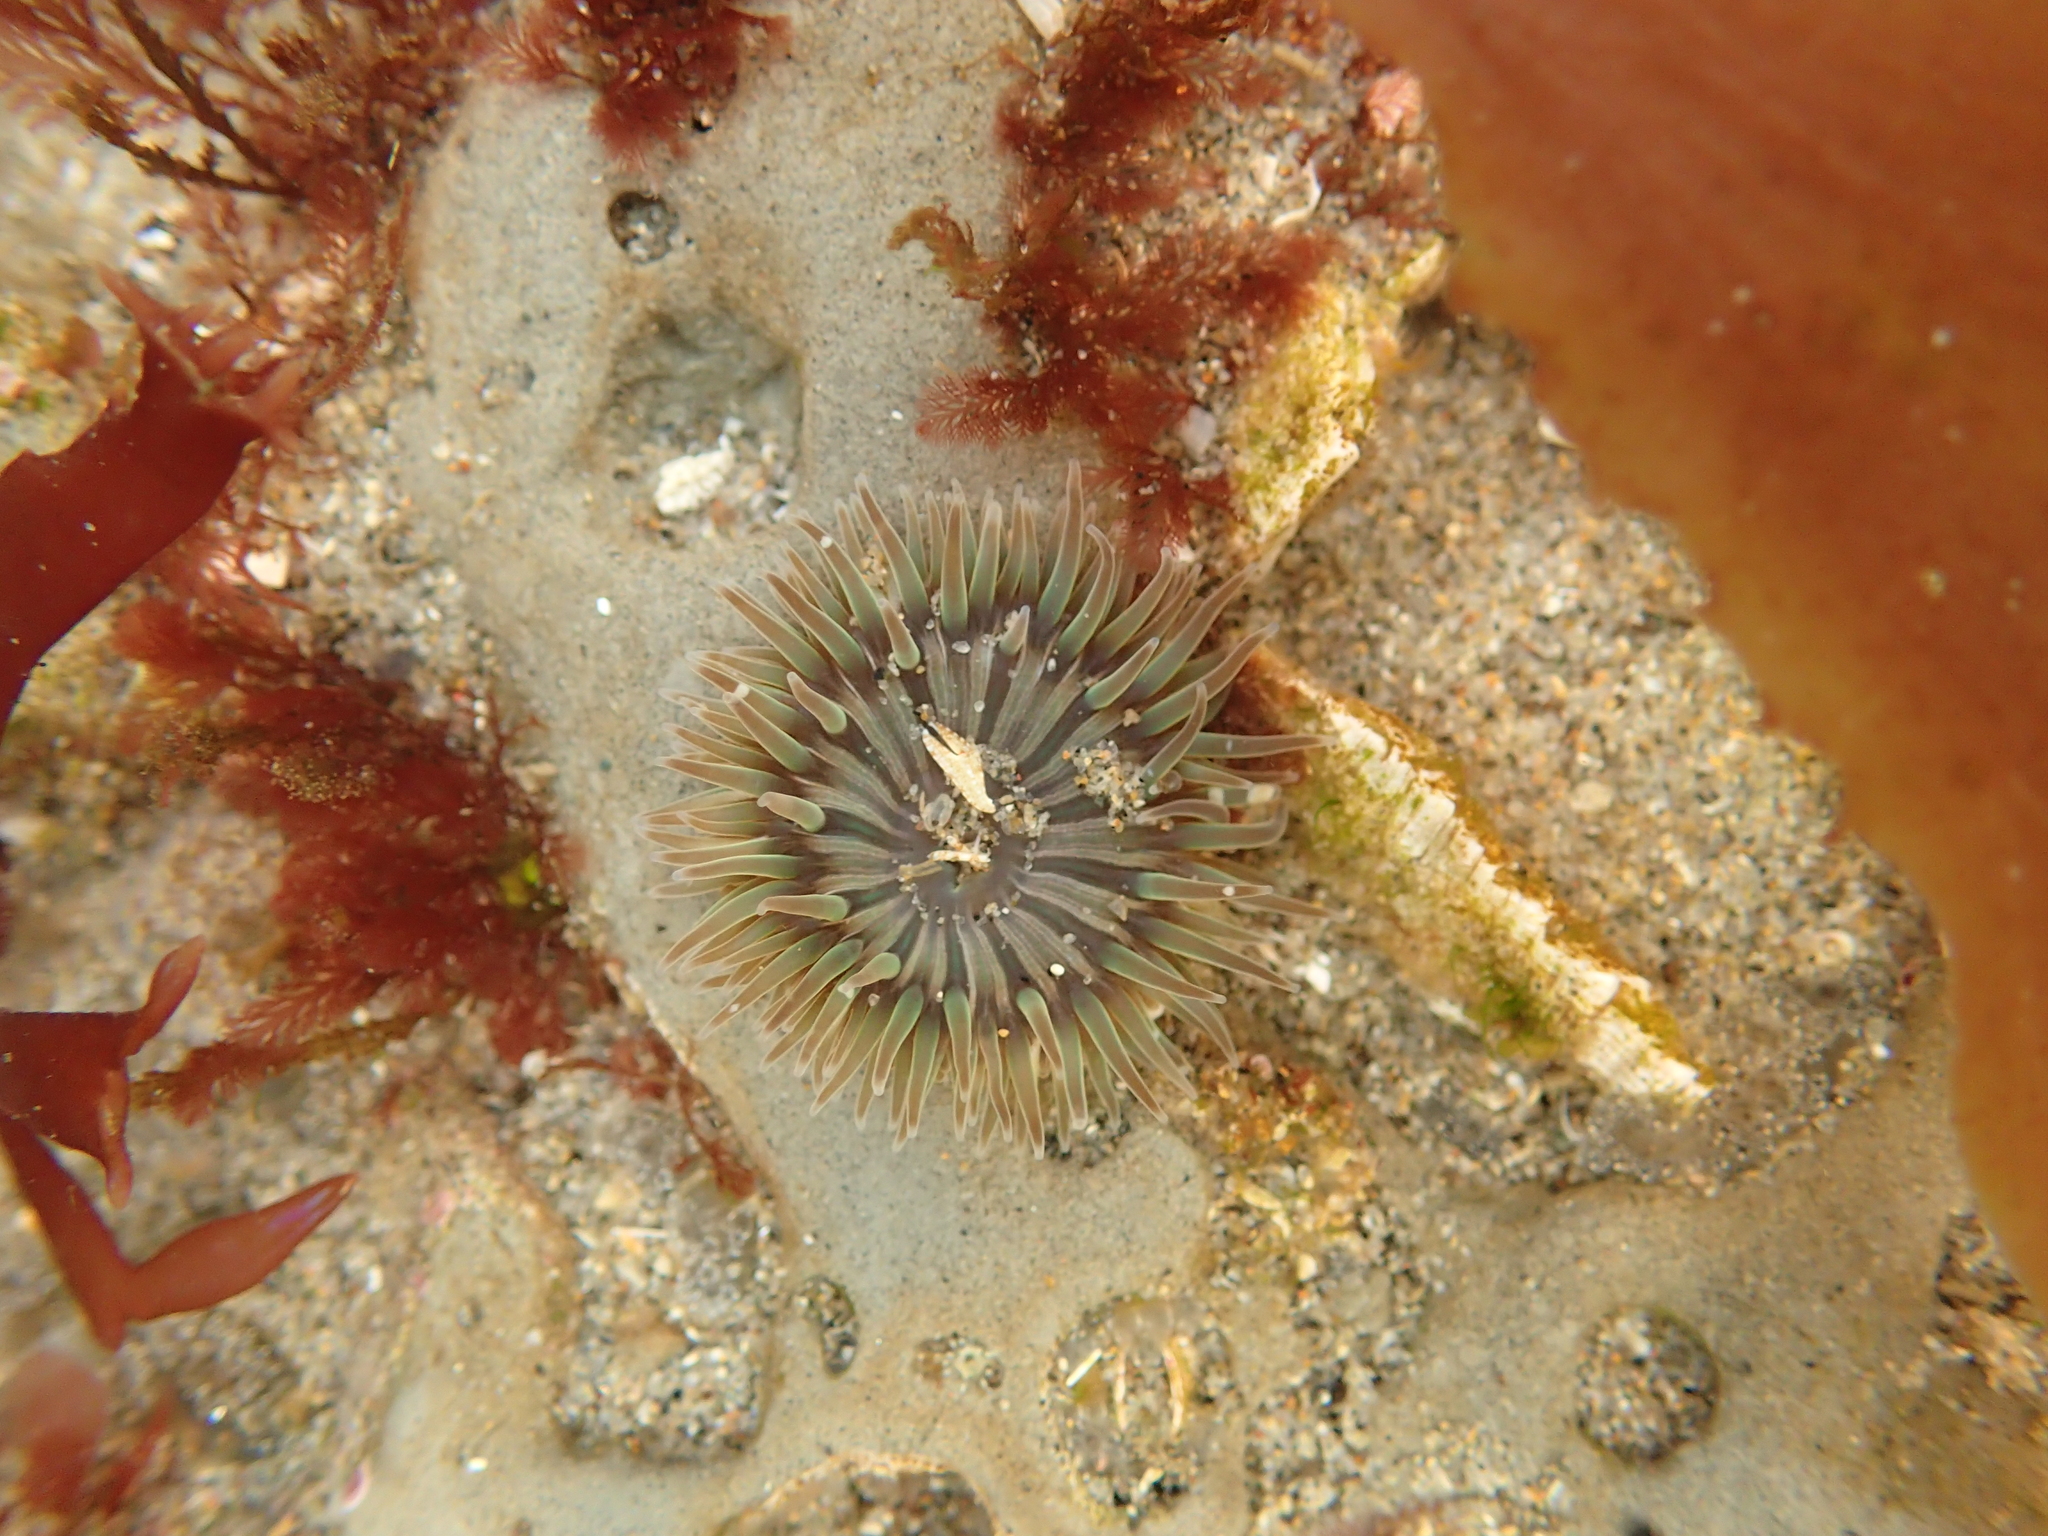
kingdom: Animalia
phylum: Cnidaria
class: Anthozoa
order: Actiniaria
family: Actiniidae
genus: Anthopleura
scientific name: Anthopleura sola
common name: Sun anemone
